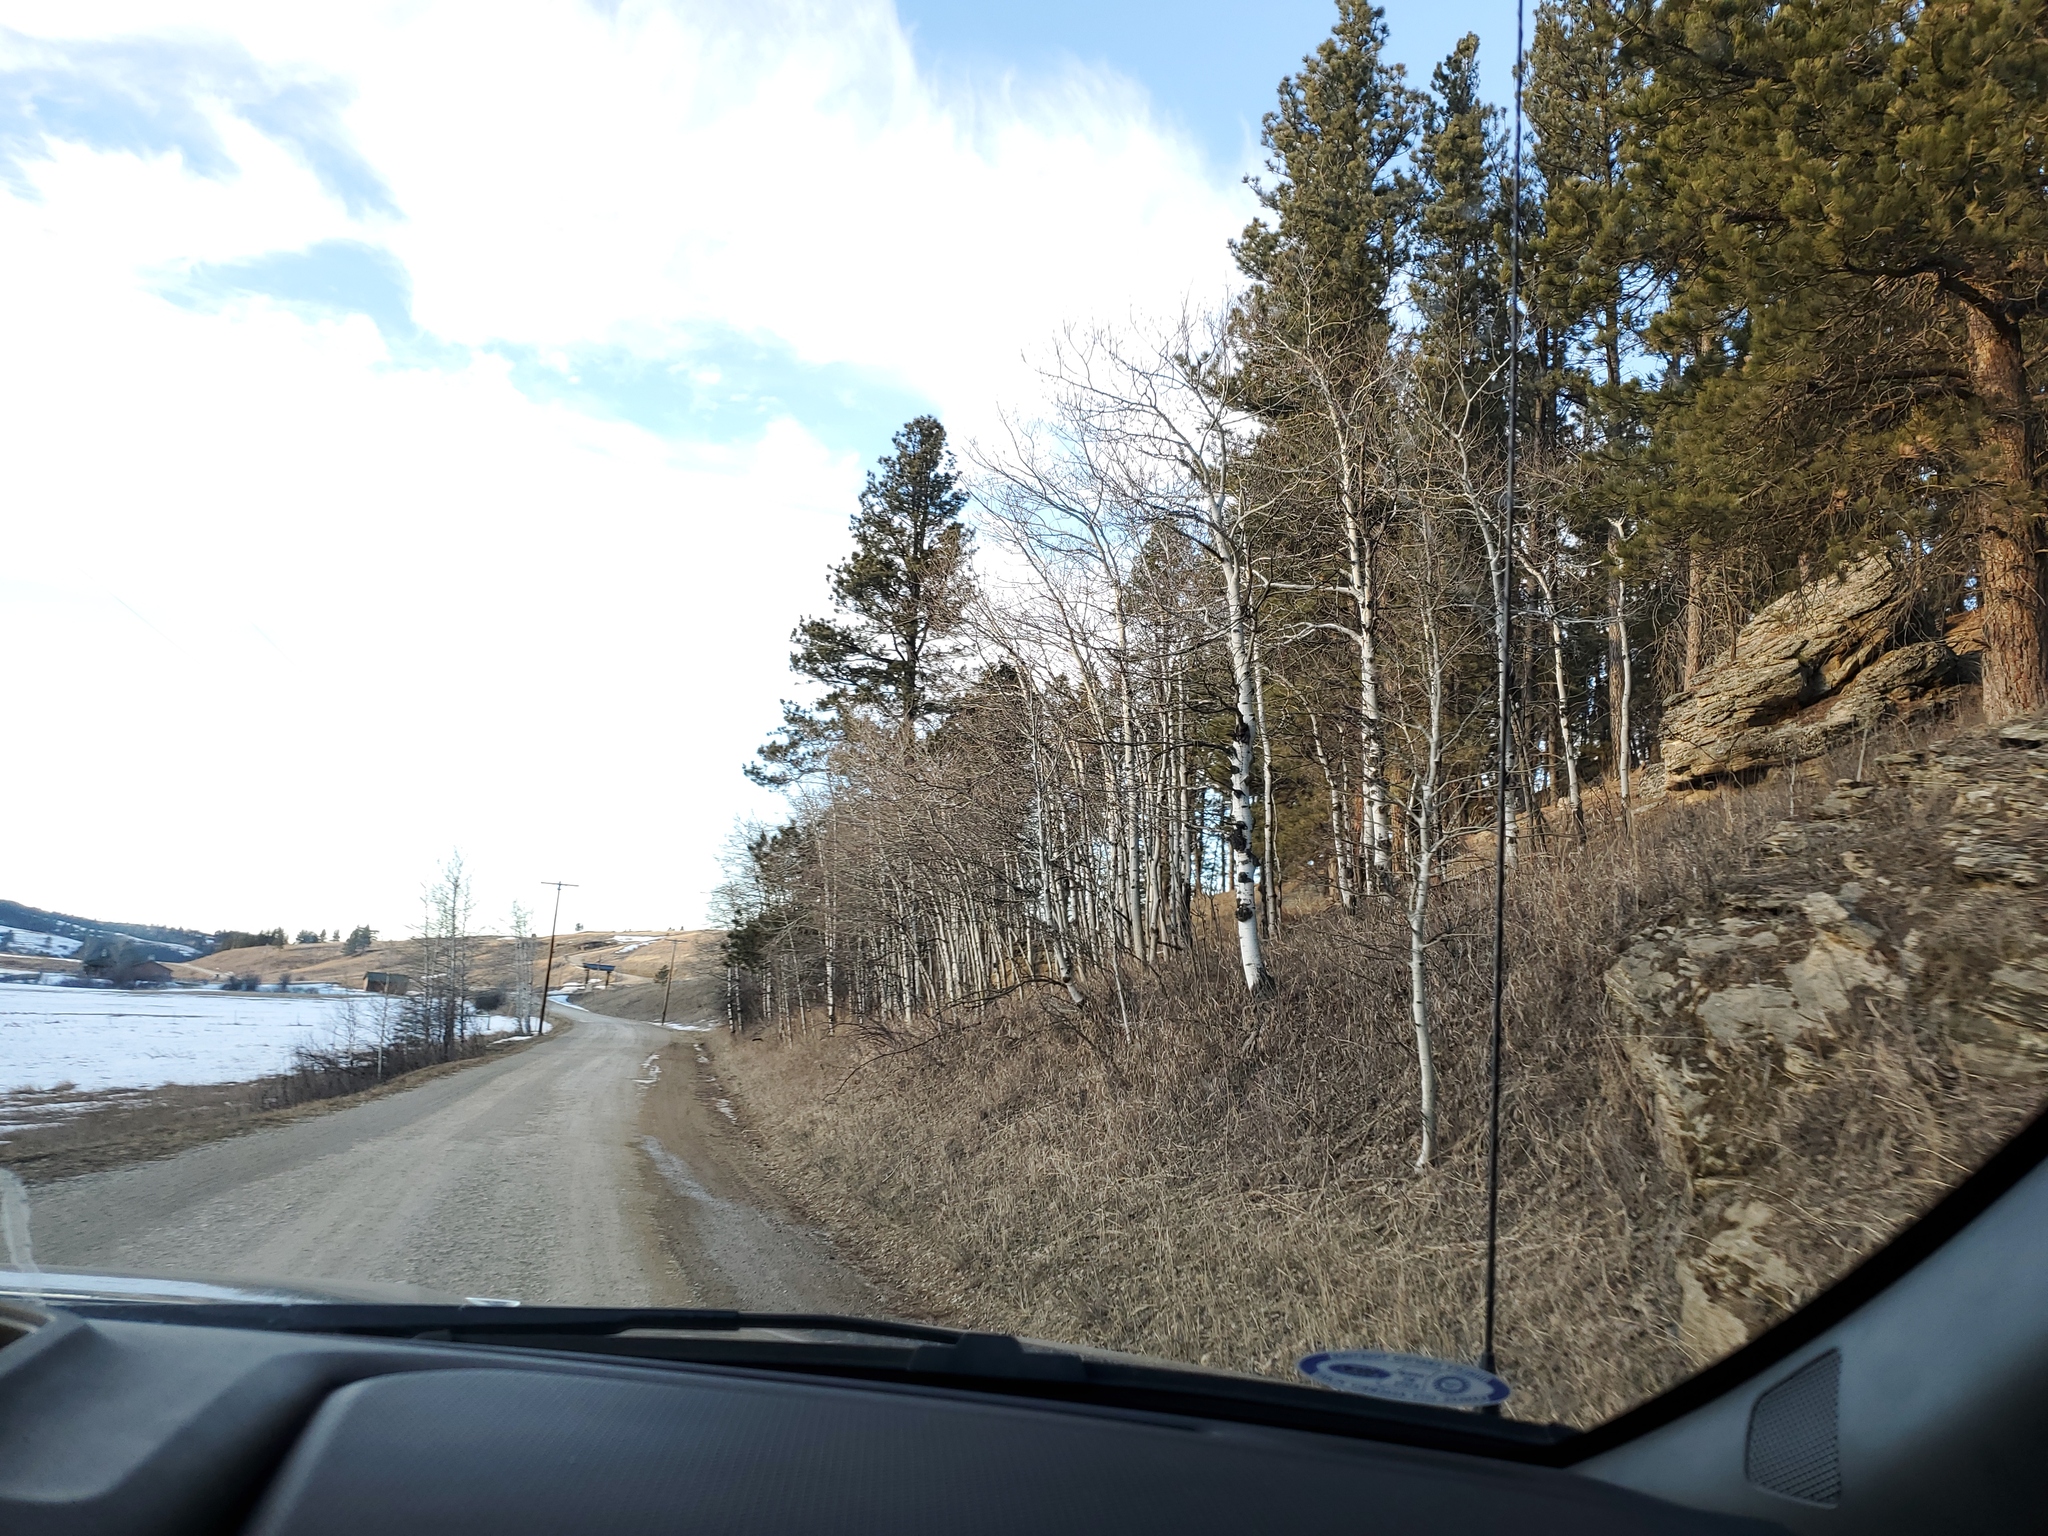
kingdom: Plantae
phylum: Tracheophyta
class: Magnoliopsida
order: Malpighiales
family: Salicaceae
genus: Populus
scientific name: Populus tremuloides
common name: Quaking aspen
